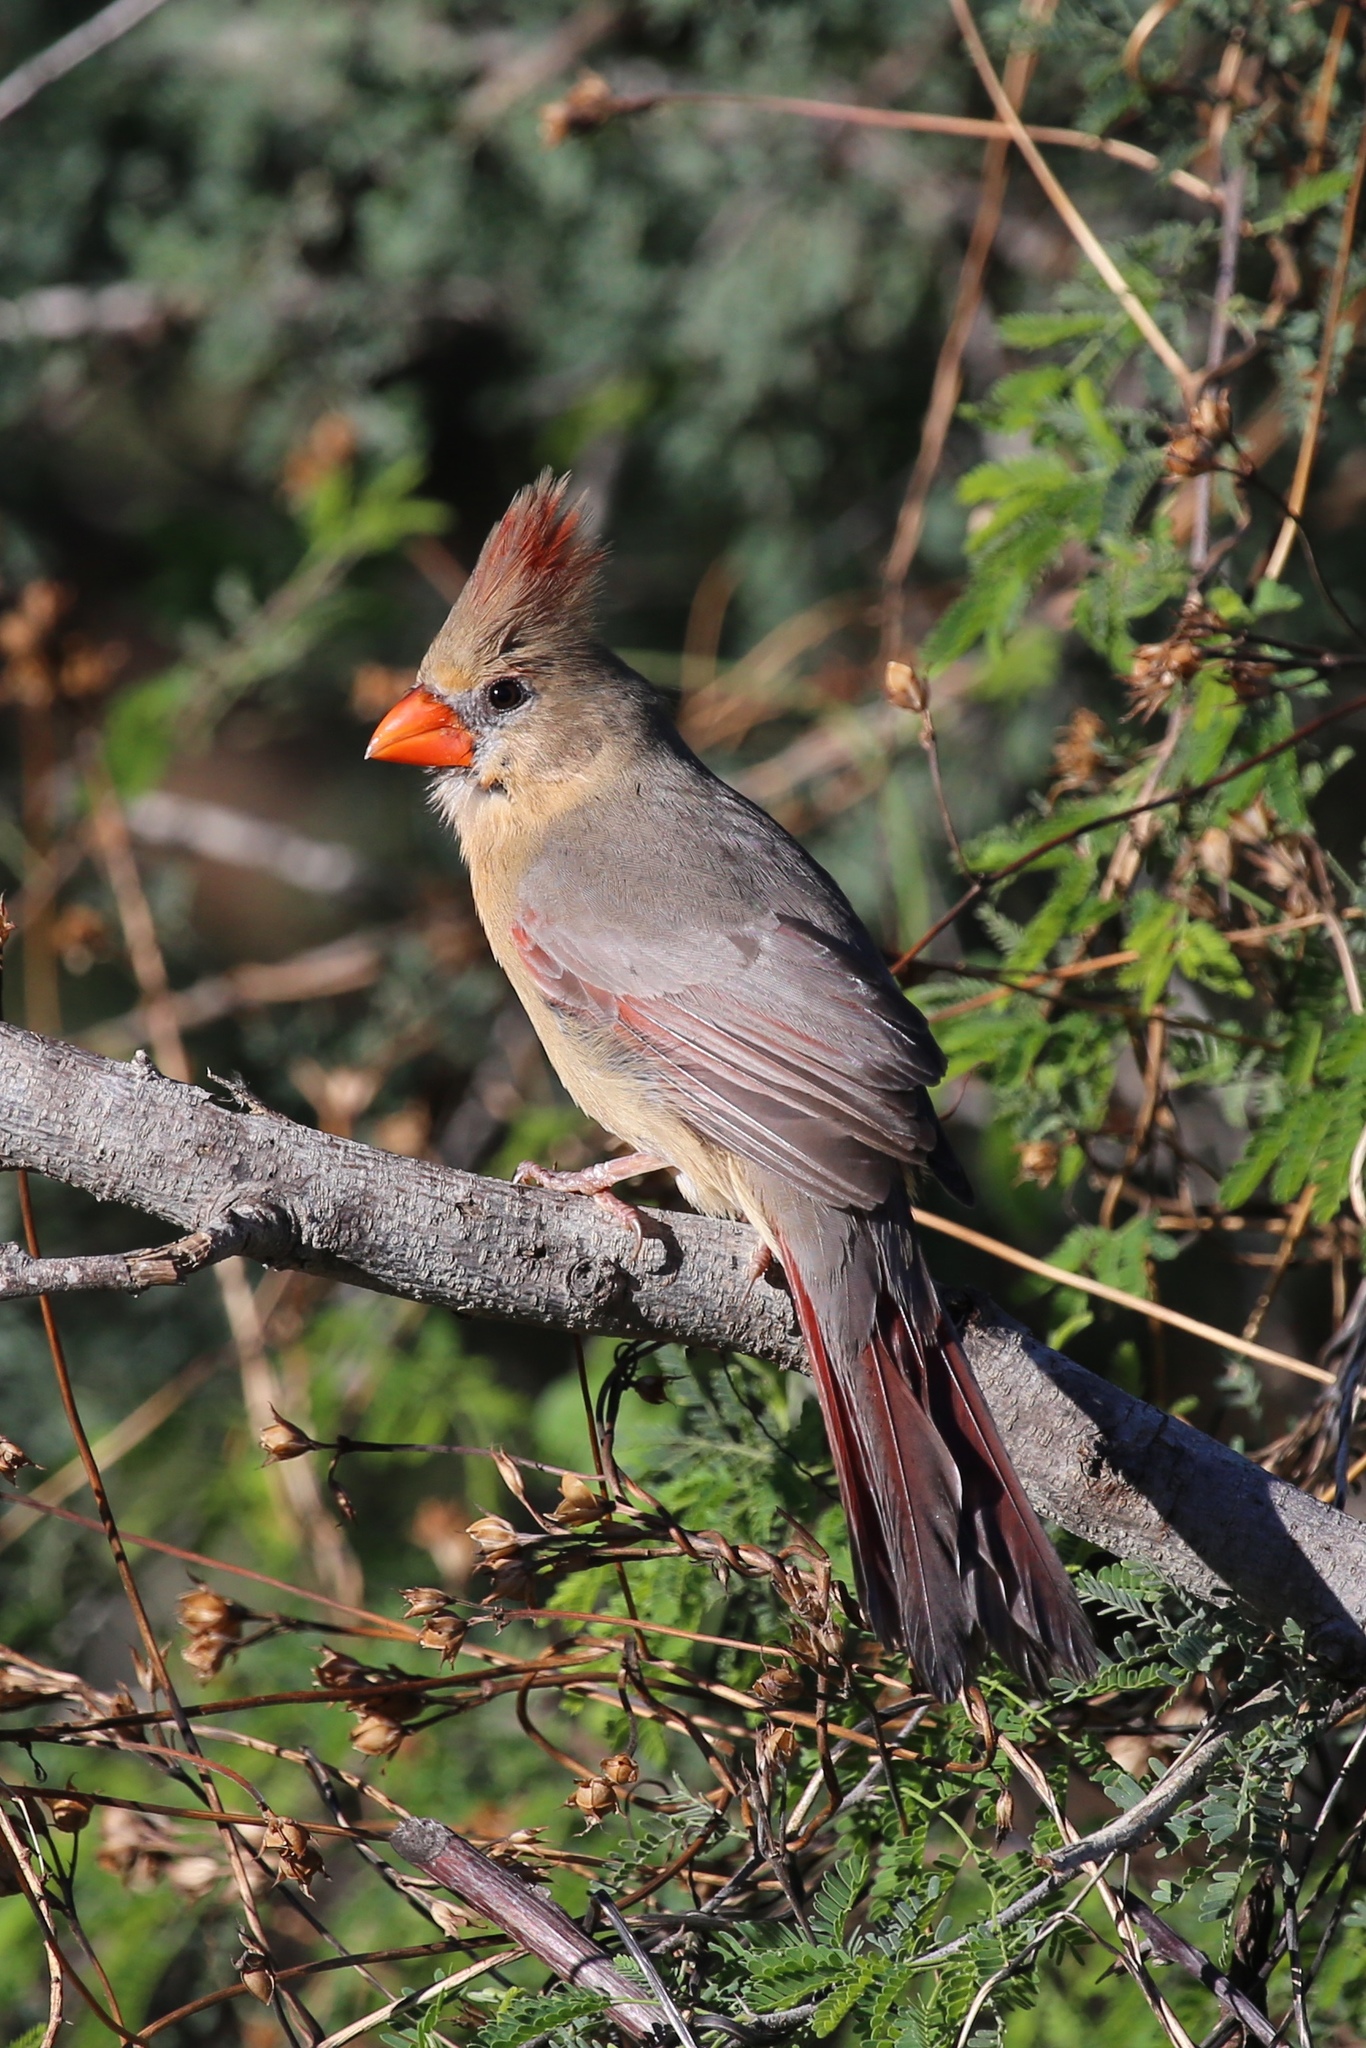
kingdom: Animalia
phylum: Chordata
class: Aves
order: Passeriformes
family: Cardinalidae
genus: Cardinalis
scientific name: Cardinalis cardinalis
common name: Northern cardinal
